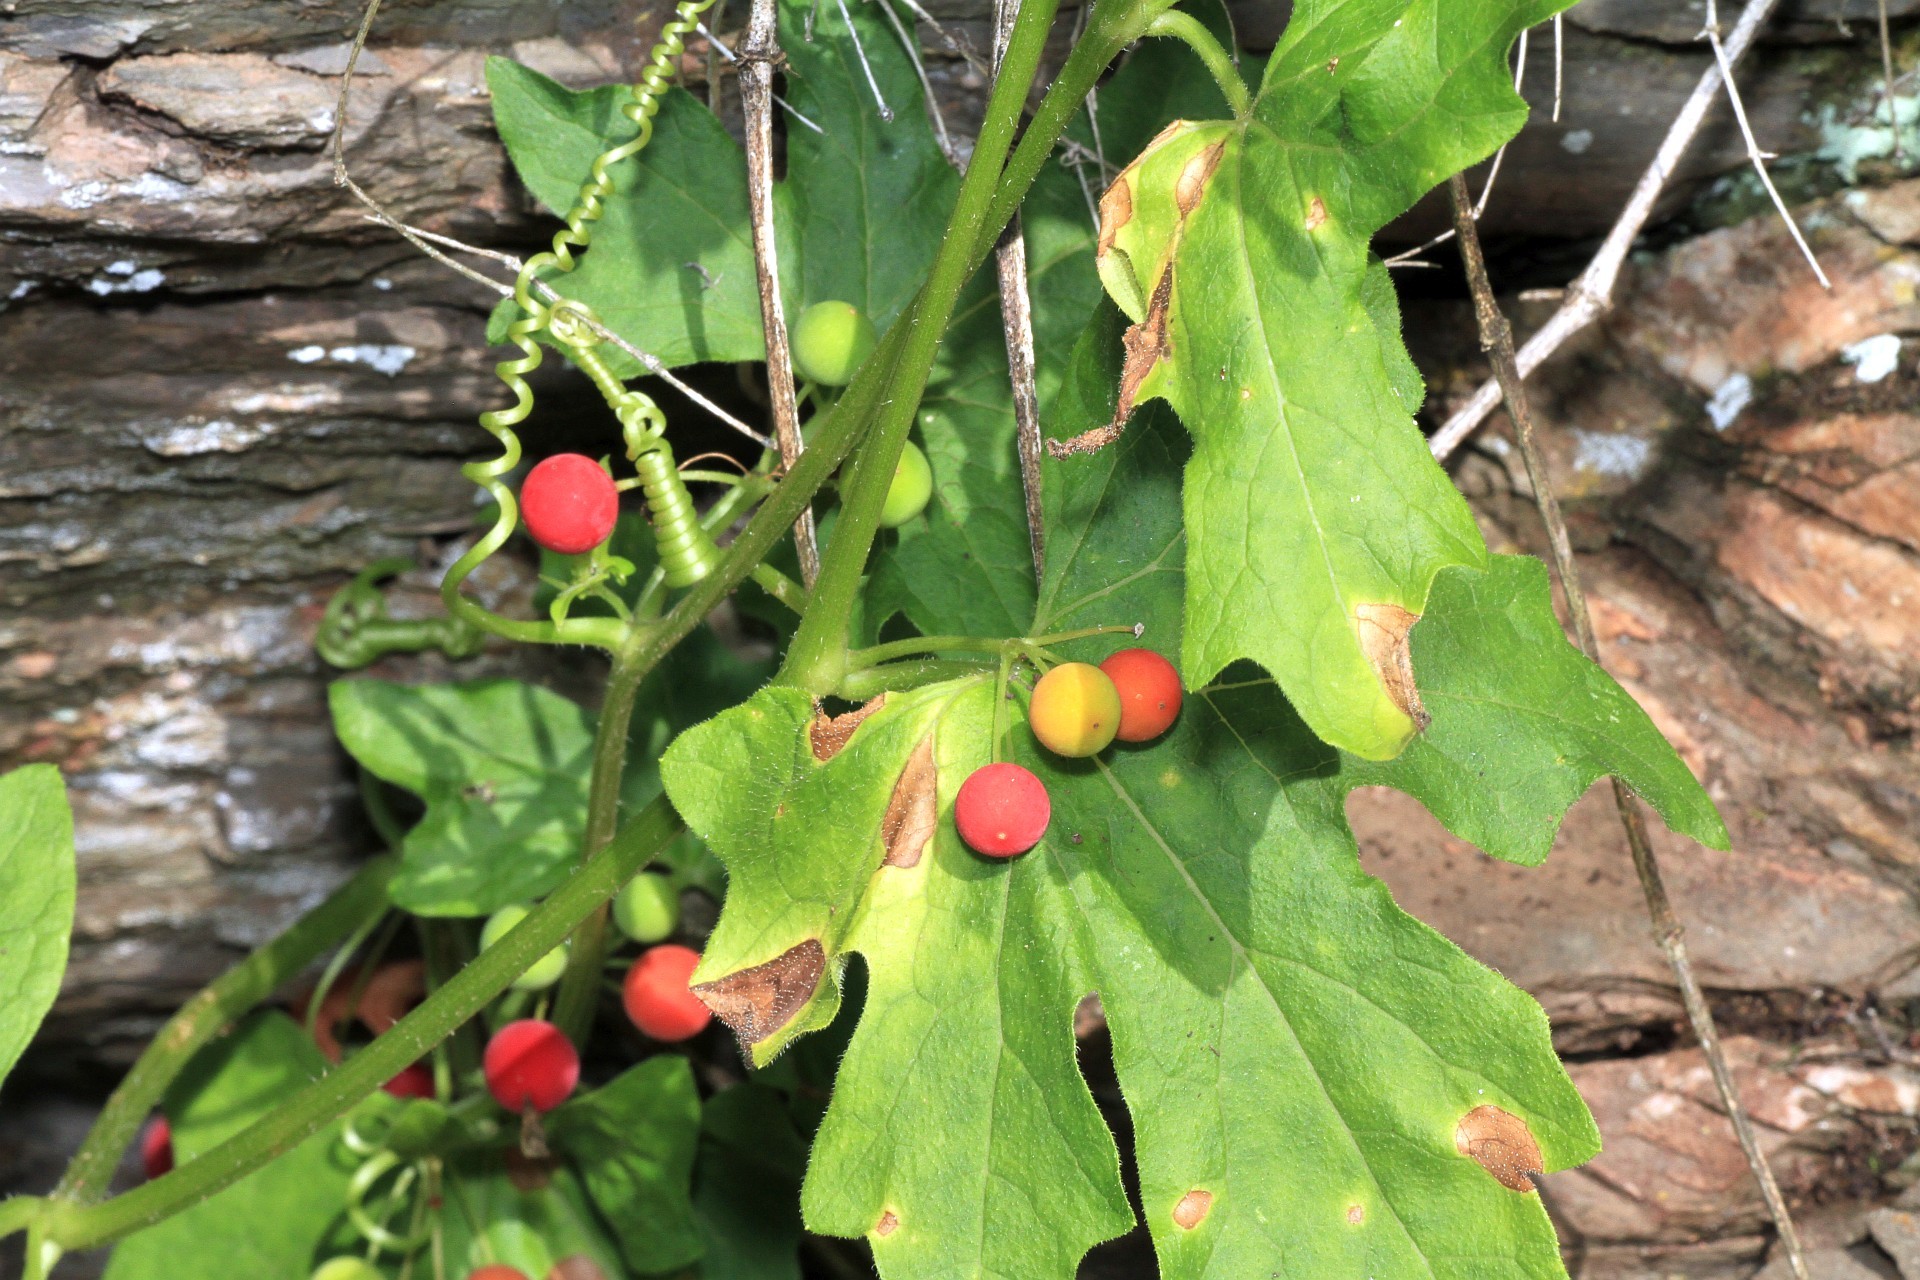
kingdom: Plantae
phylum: Tracheophyta
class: Magnoliopsida
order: Cucurbitales
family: Cucurbitaceae
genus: Bryonia
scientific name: Bryonia cretica
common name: Cretan bryony
